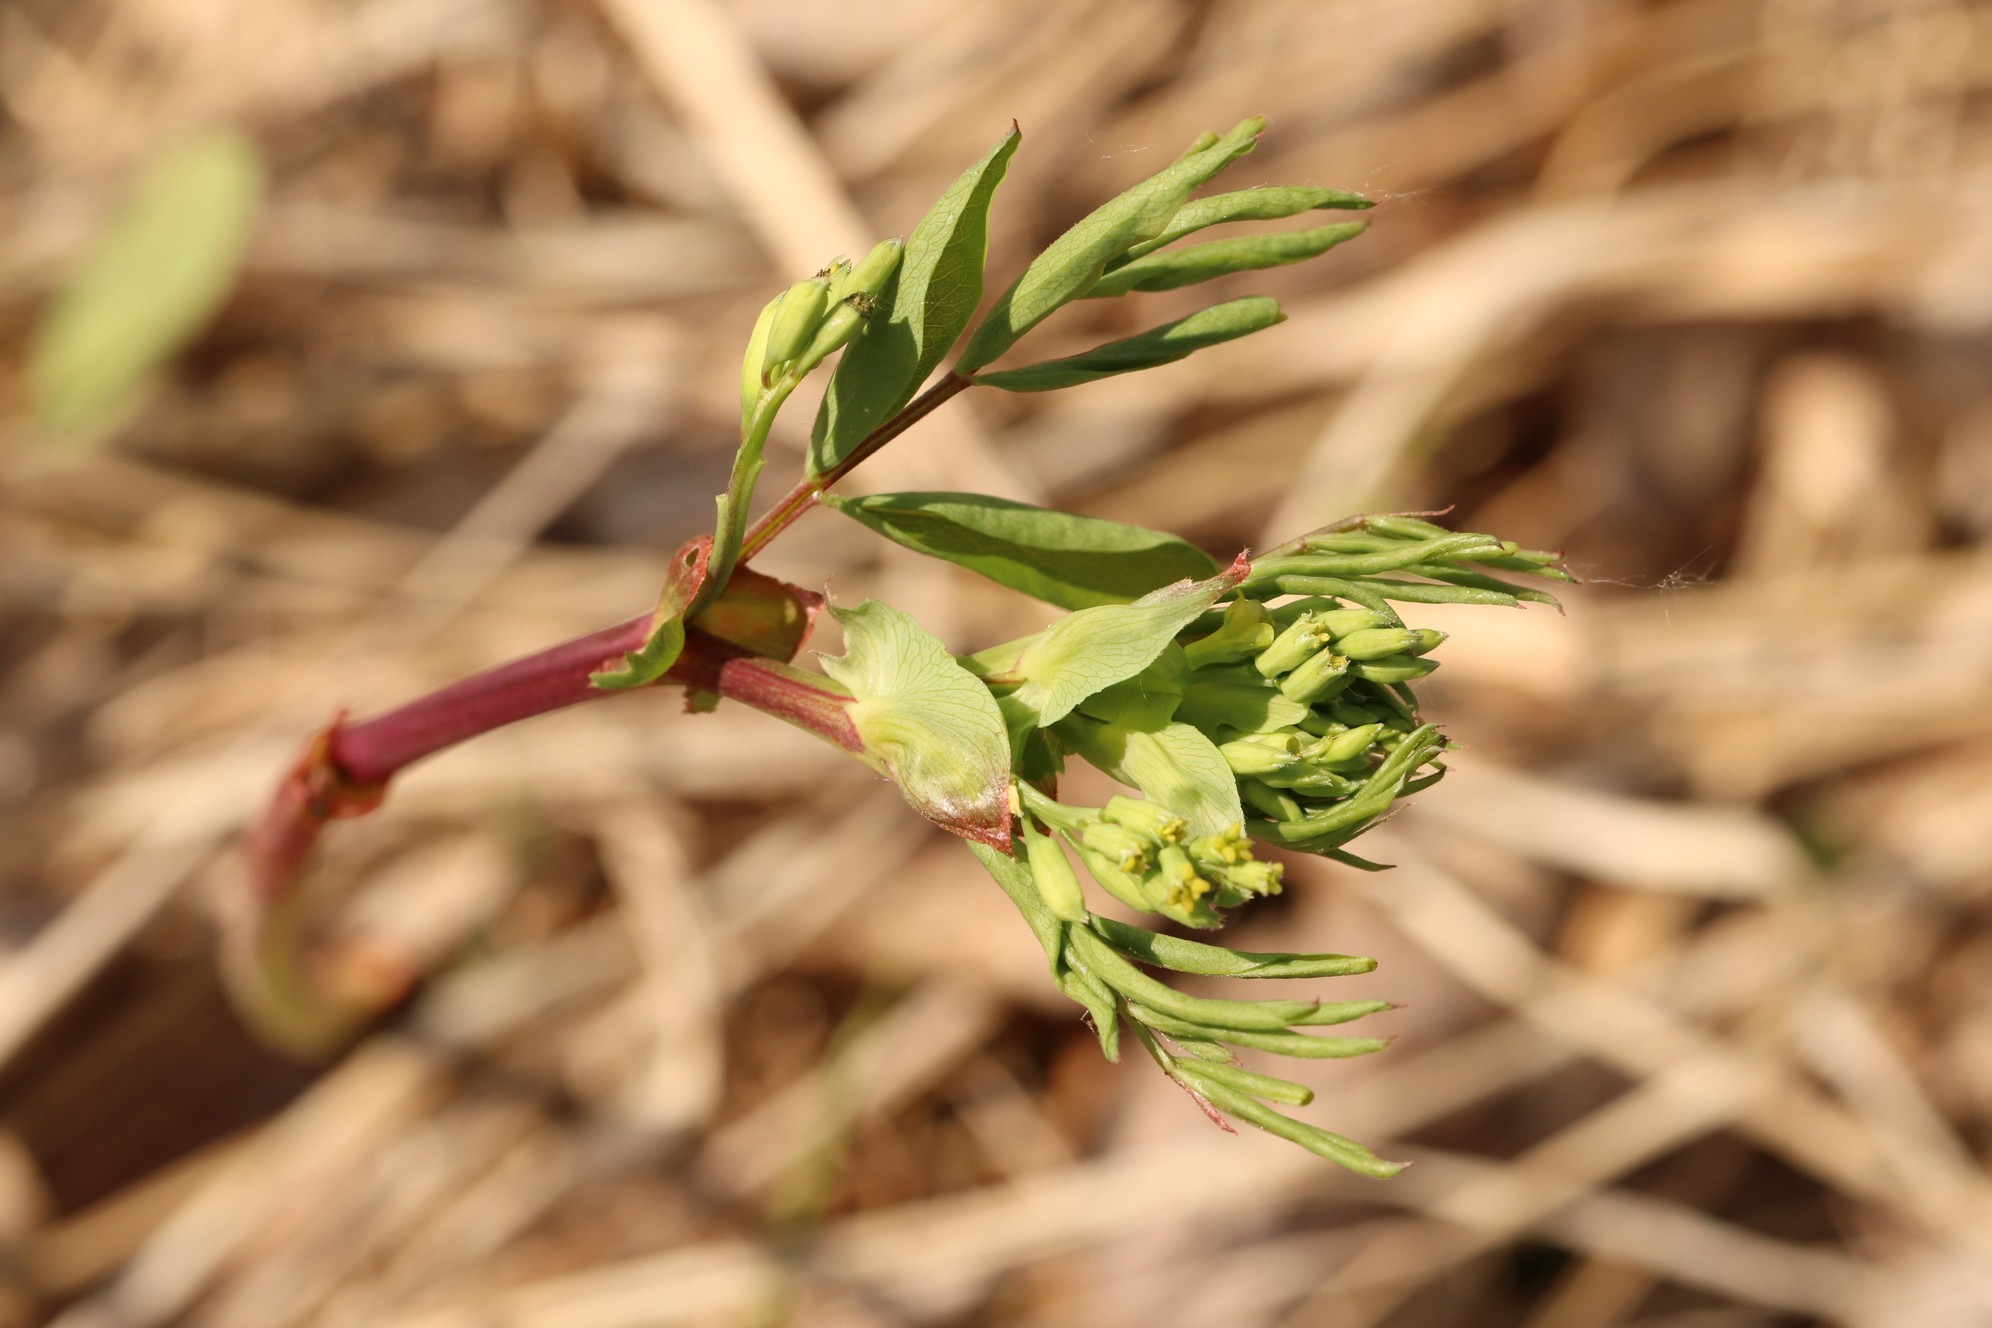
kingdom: Plantae
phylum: Tracheophyta
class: Magnoliopsida
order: Fabales
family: Fabaceae
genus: Lathyrus
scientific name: Lathyrus pisiformis
